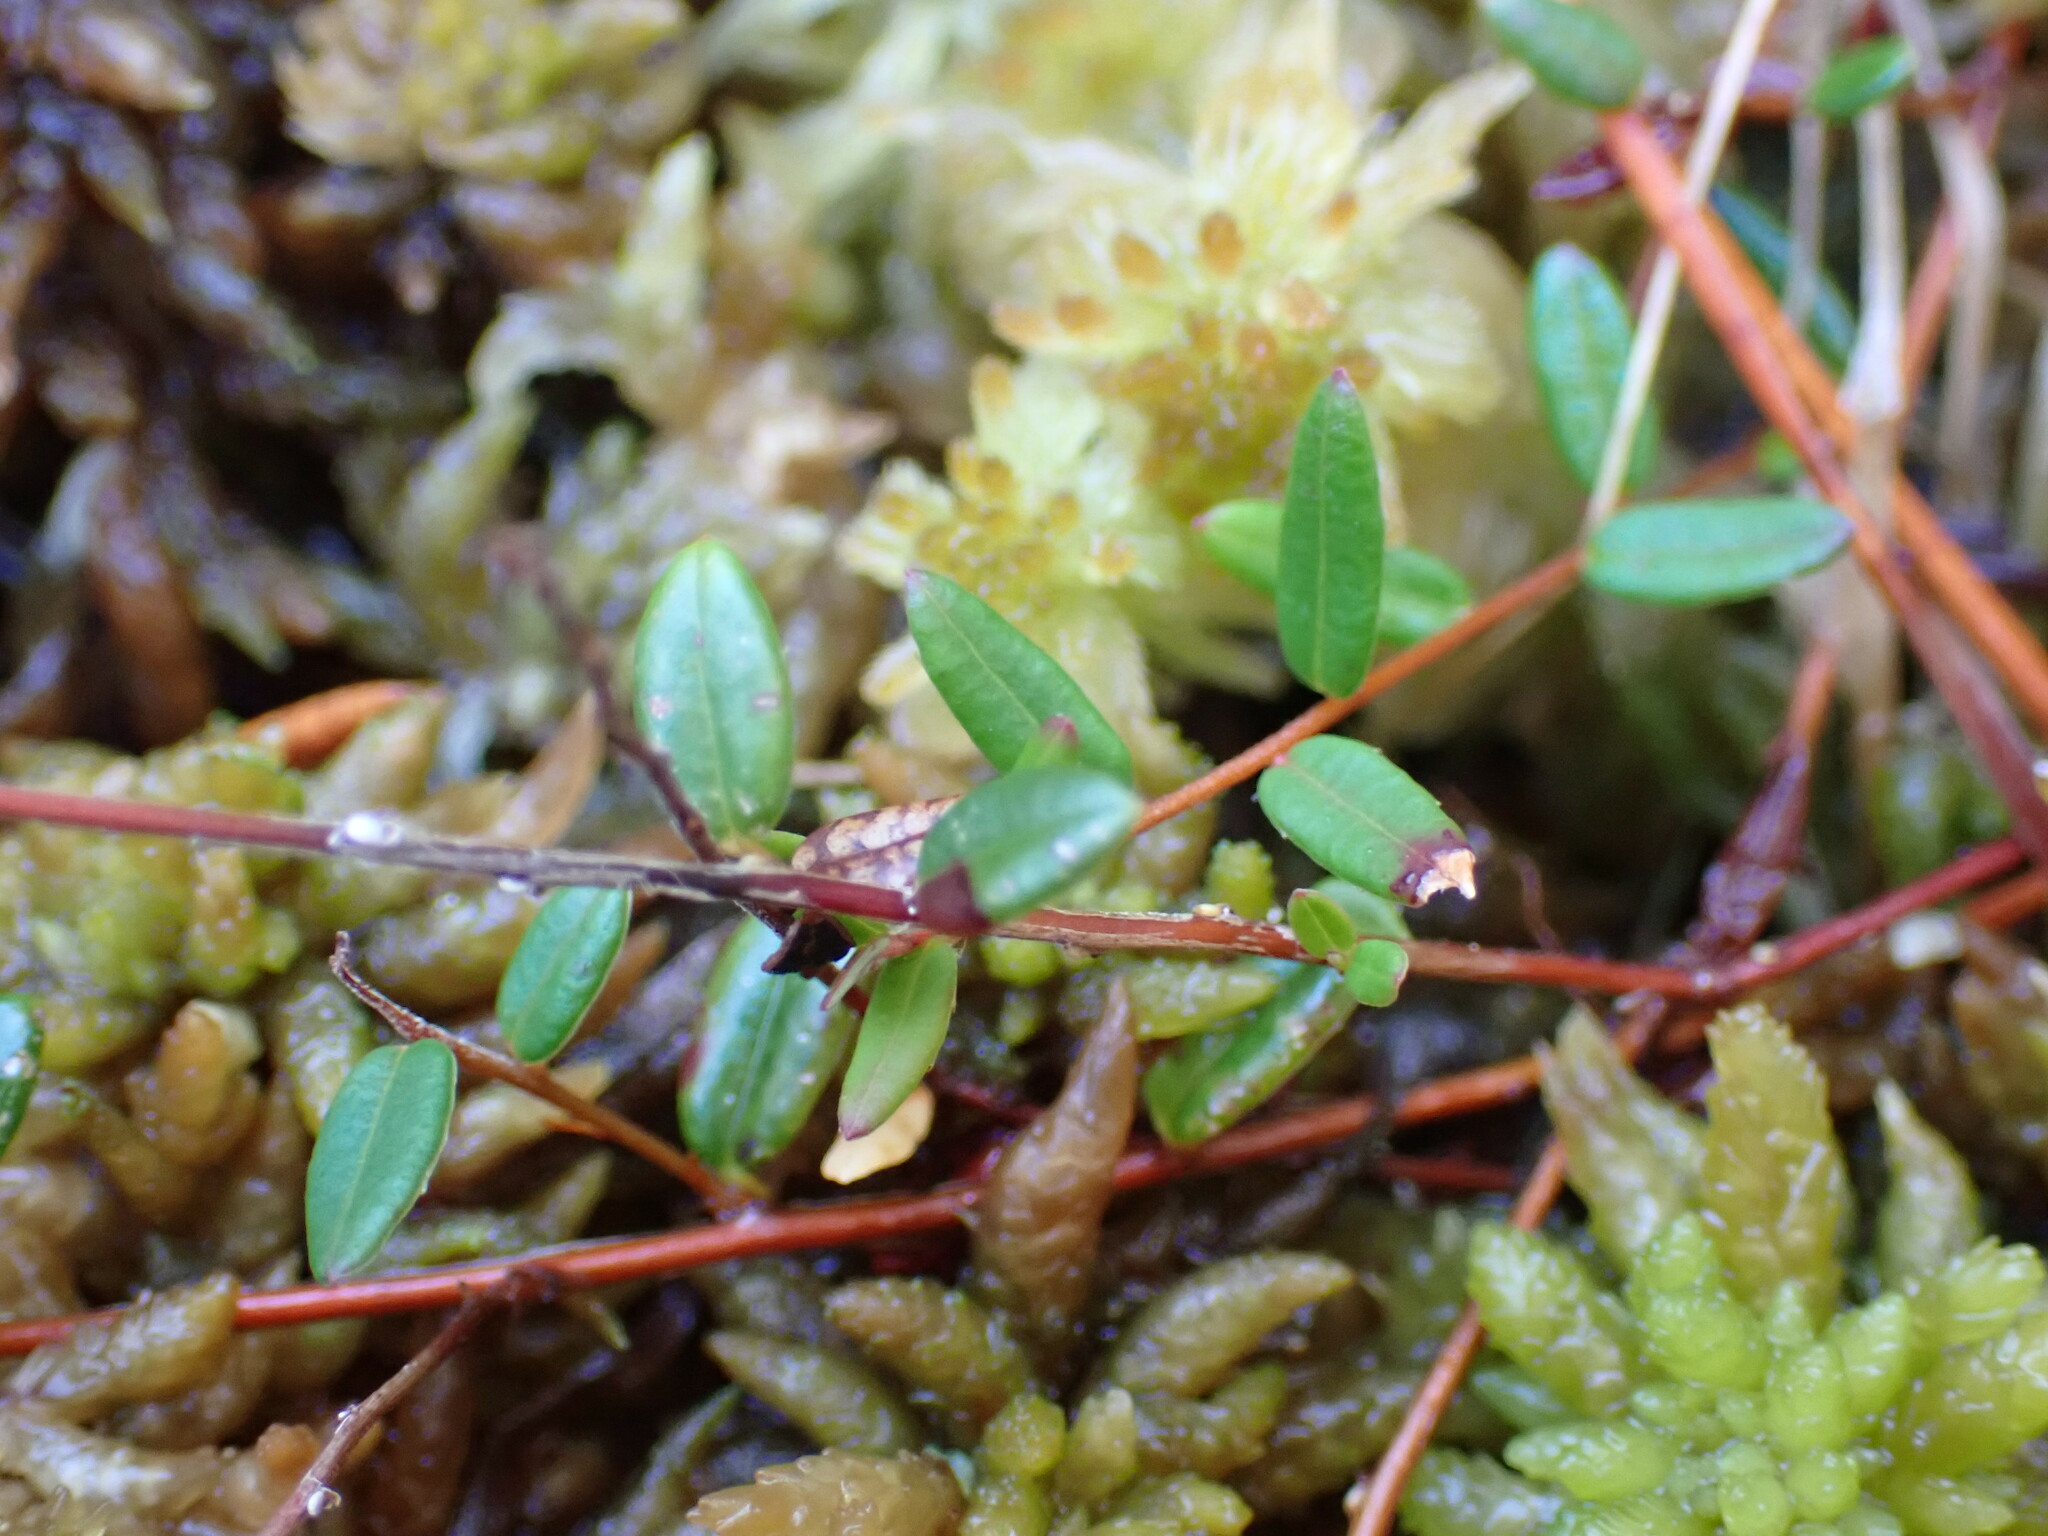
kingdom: Plantae
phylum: Tracheophyta
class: Magnoliopsida
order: Ericales
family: Ericaceae
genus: Vaccinium
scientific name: Vaccinium oxycoccos
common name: Cranberry
